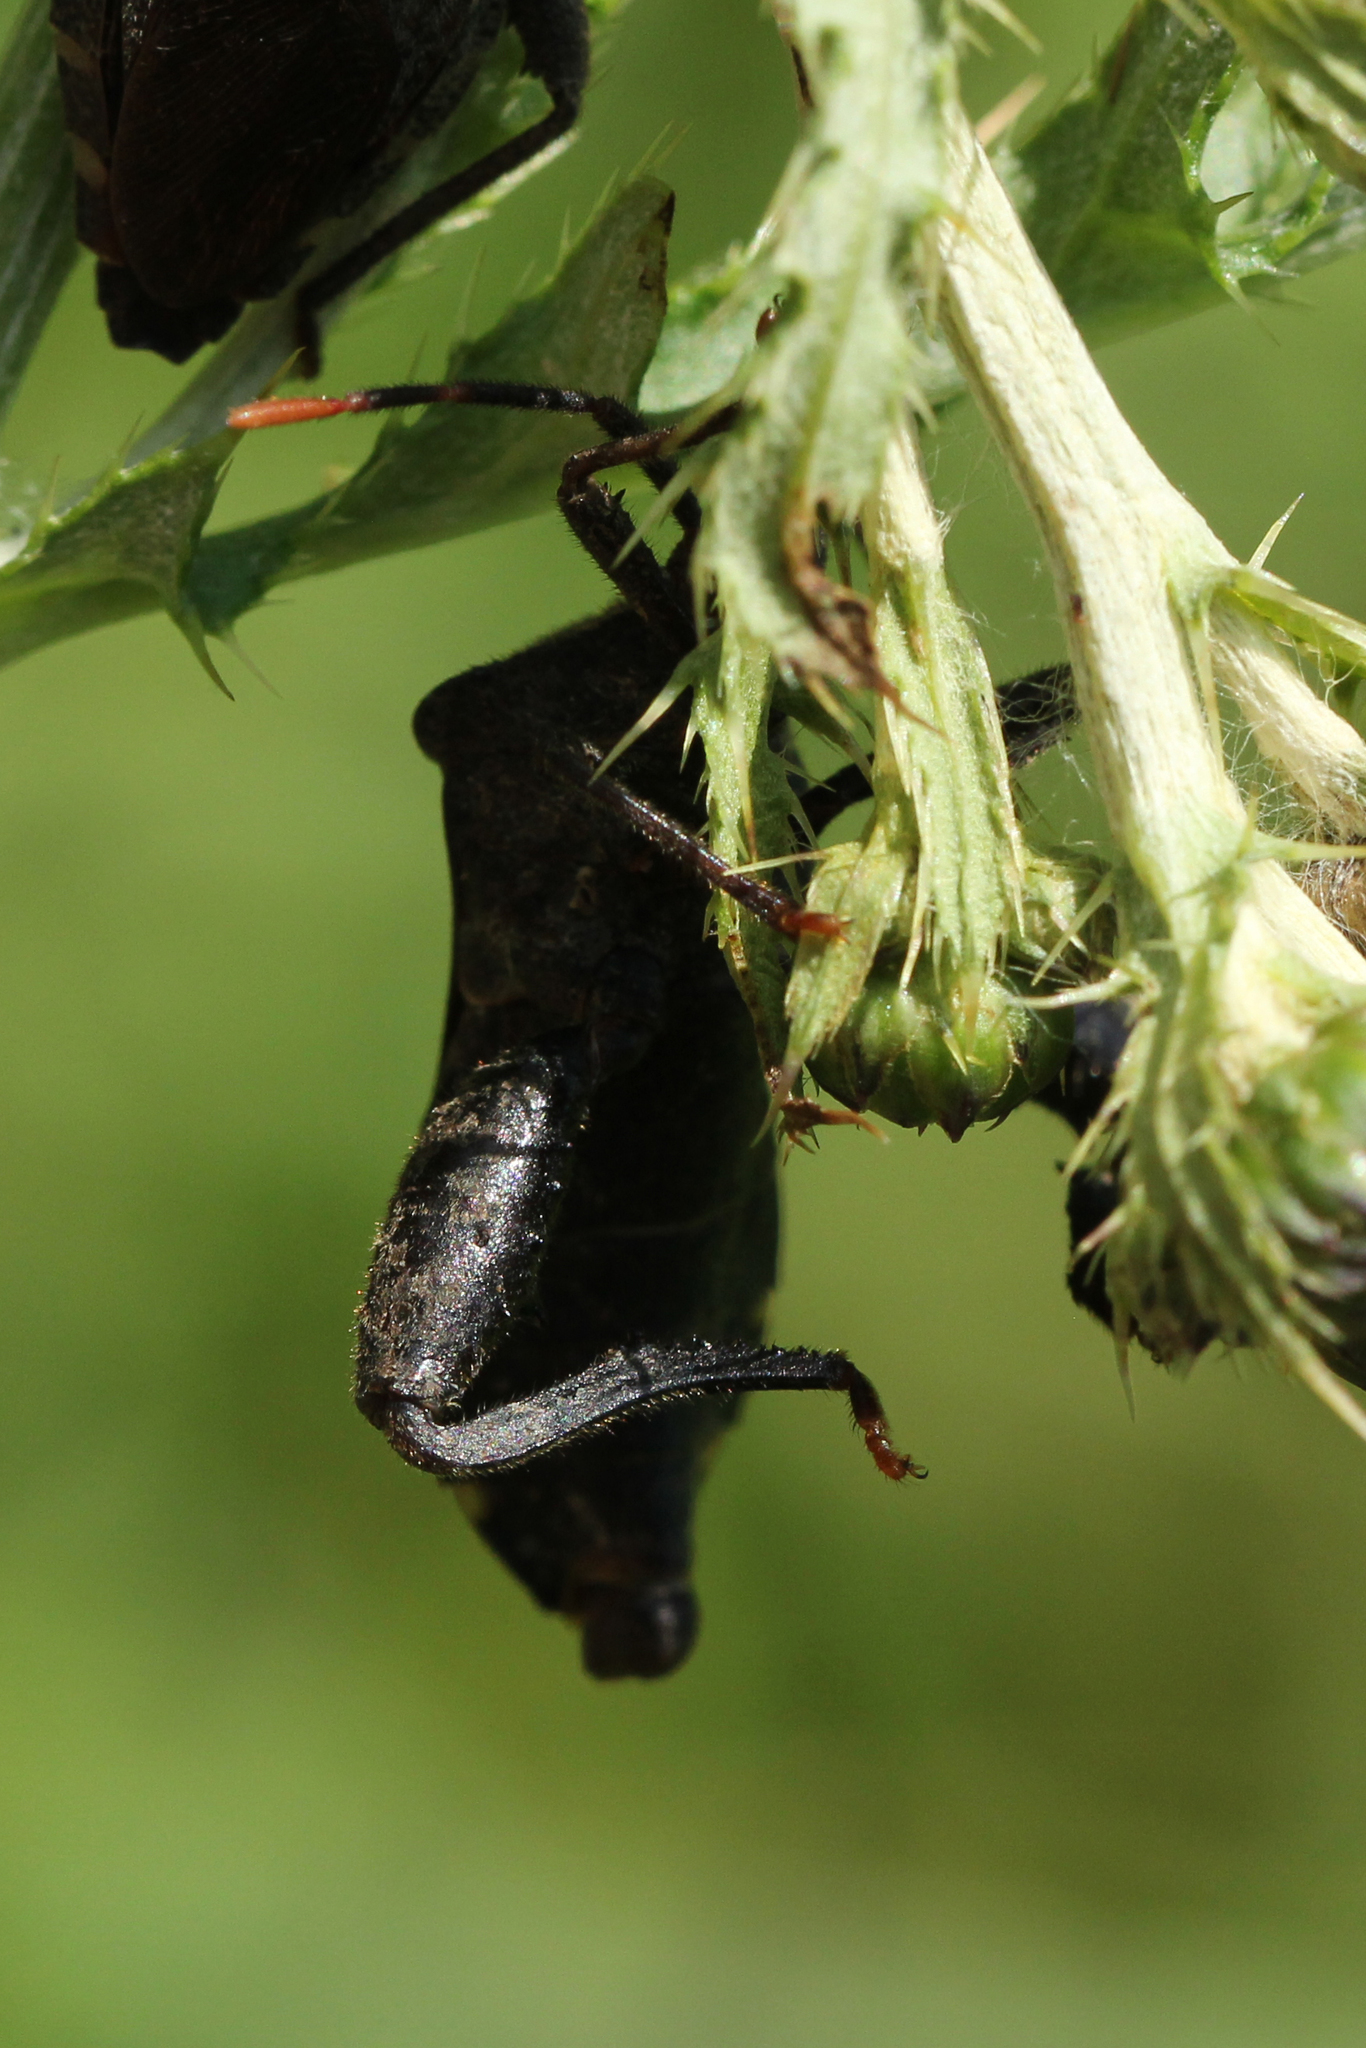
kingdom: Animalia
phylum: Arthropoda
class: Insecta
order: Hemiptera
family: Coreidae
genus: Piezogaster
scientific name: Piezogaster calcarator
